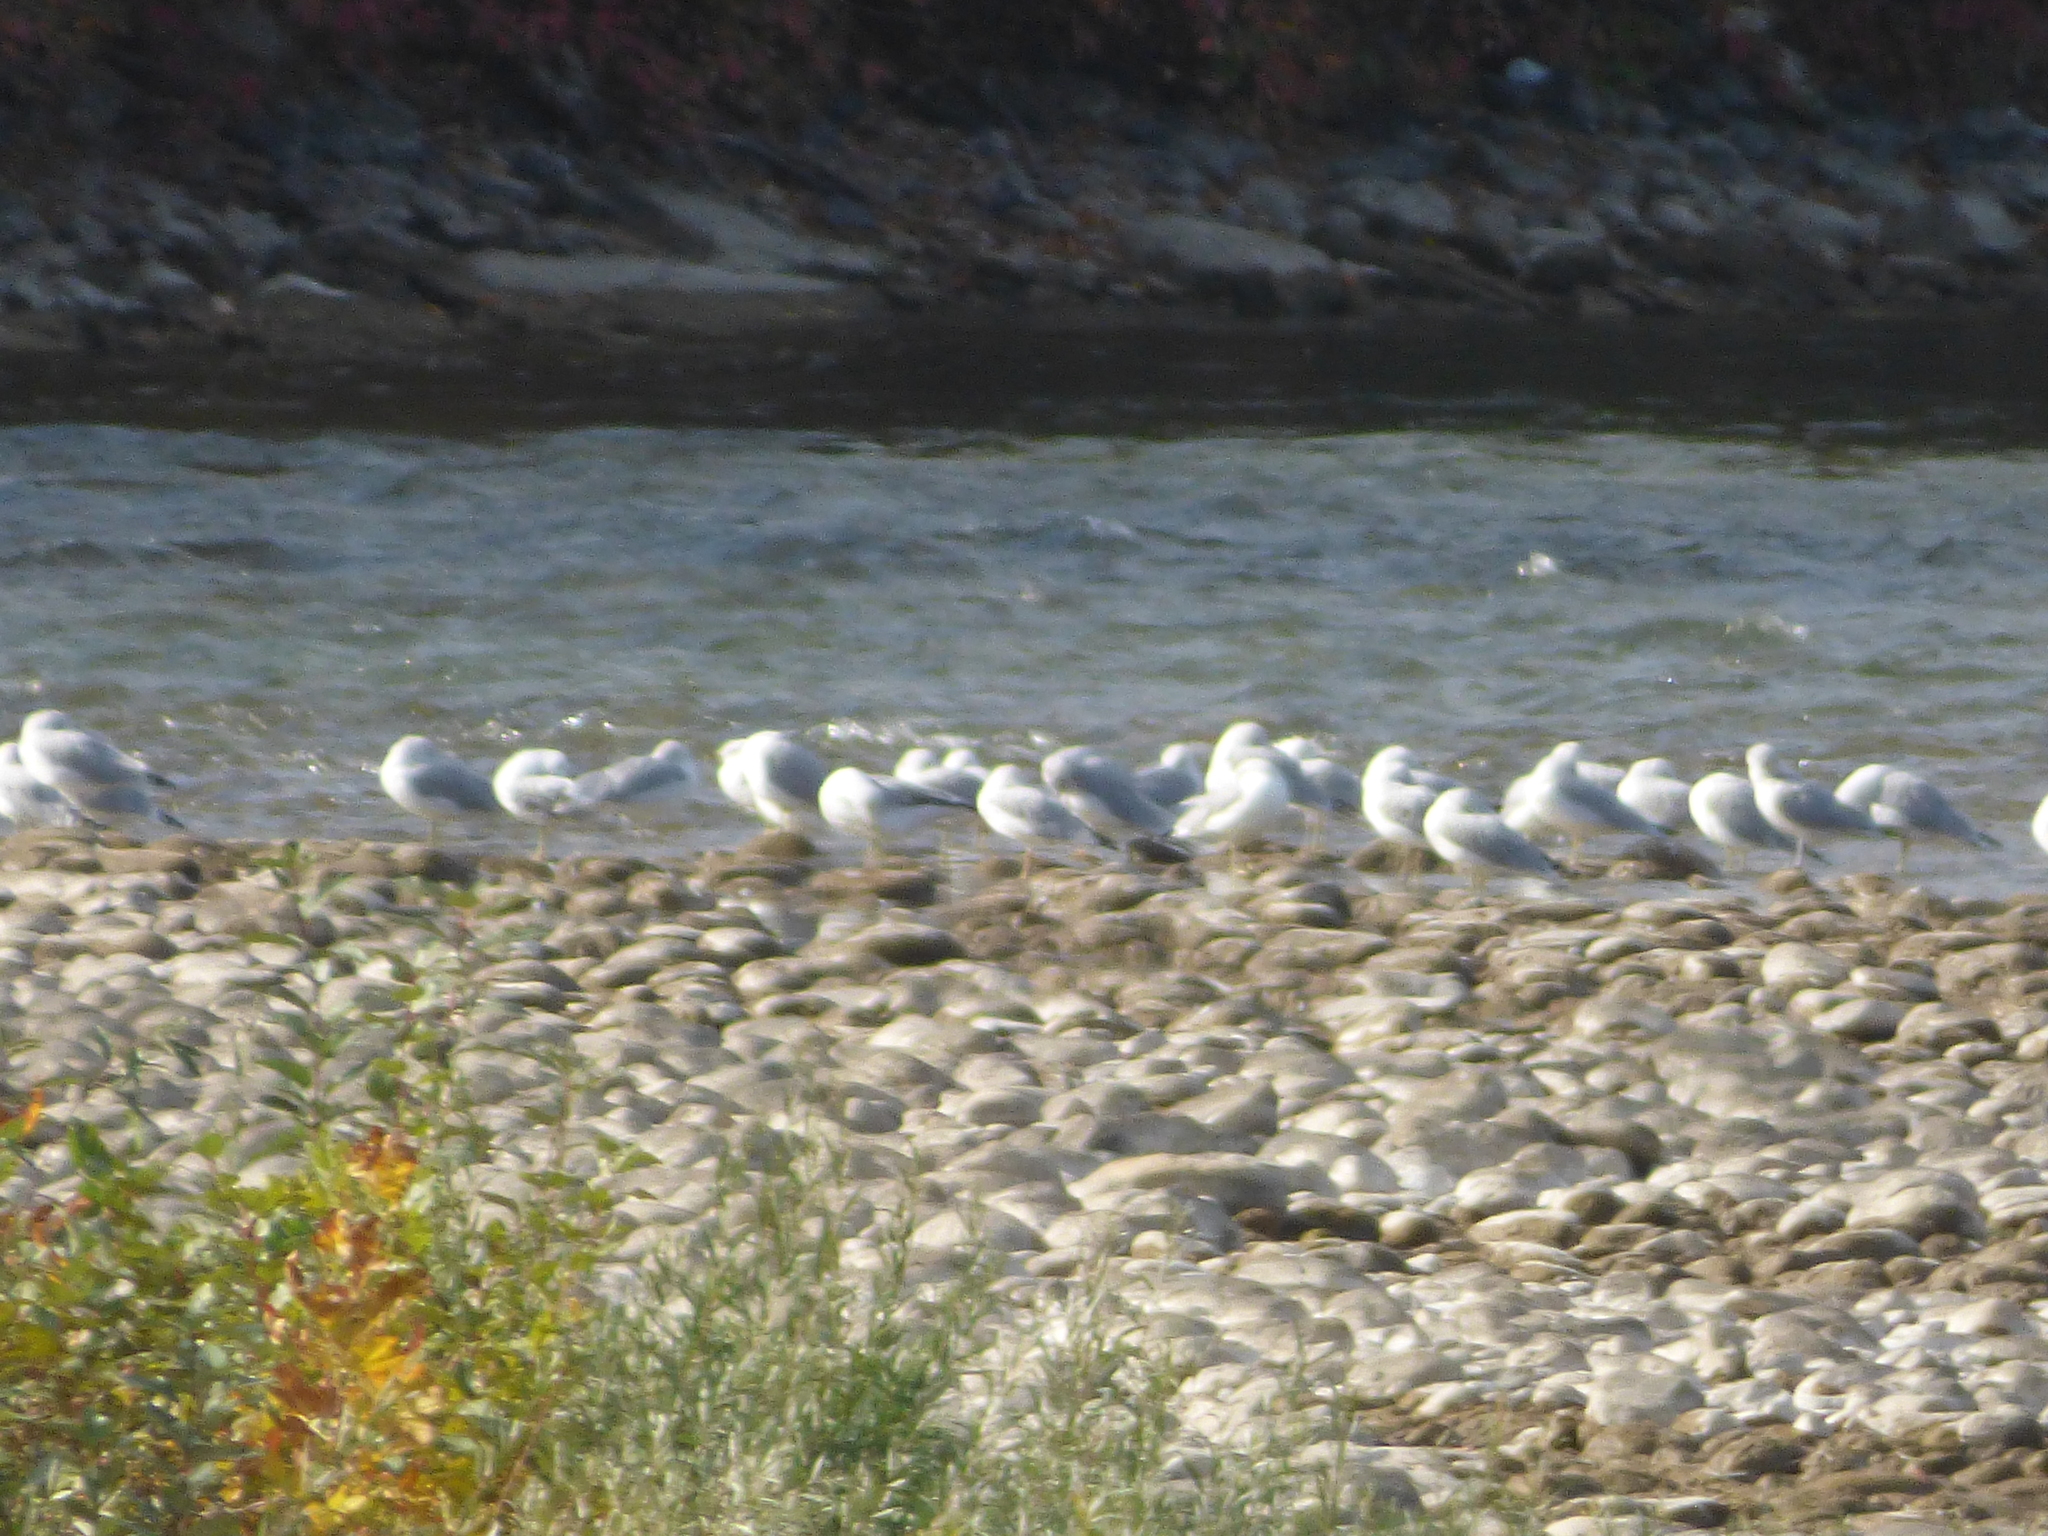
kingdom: Animalia
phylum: Chordata
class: Aves
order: Charadriiformes
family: Laridae
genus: Larus
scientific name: Larus delawarensis
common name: Ring-billed gull
